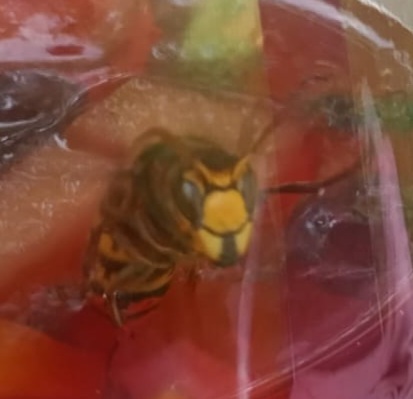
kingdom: Animalia
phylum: Arthropoda
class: Insecta
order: Hymenoptera
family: Vespidae
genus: Vespa
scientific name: Vespa crabro
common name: Hornet
